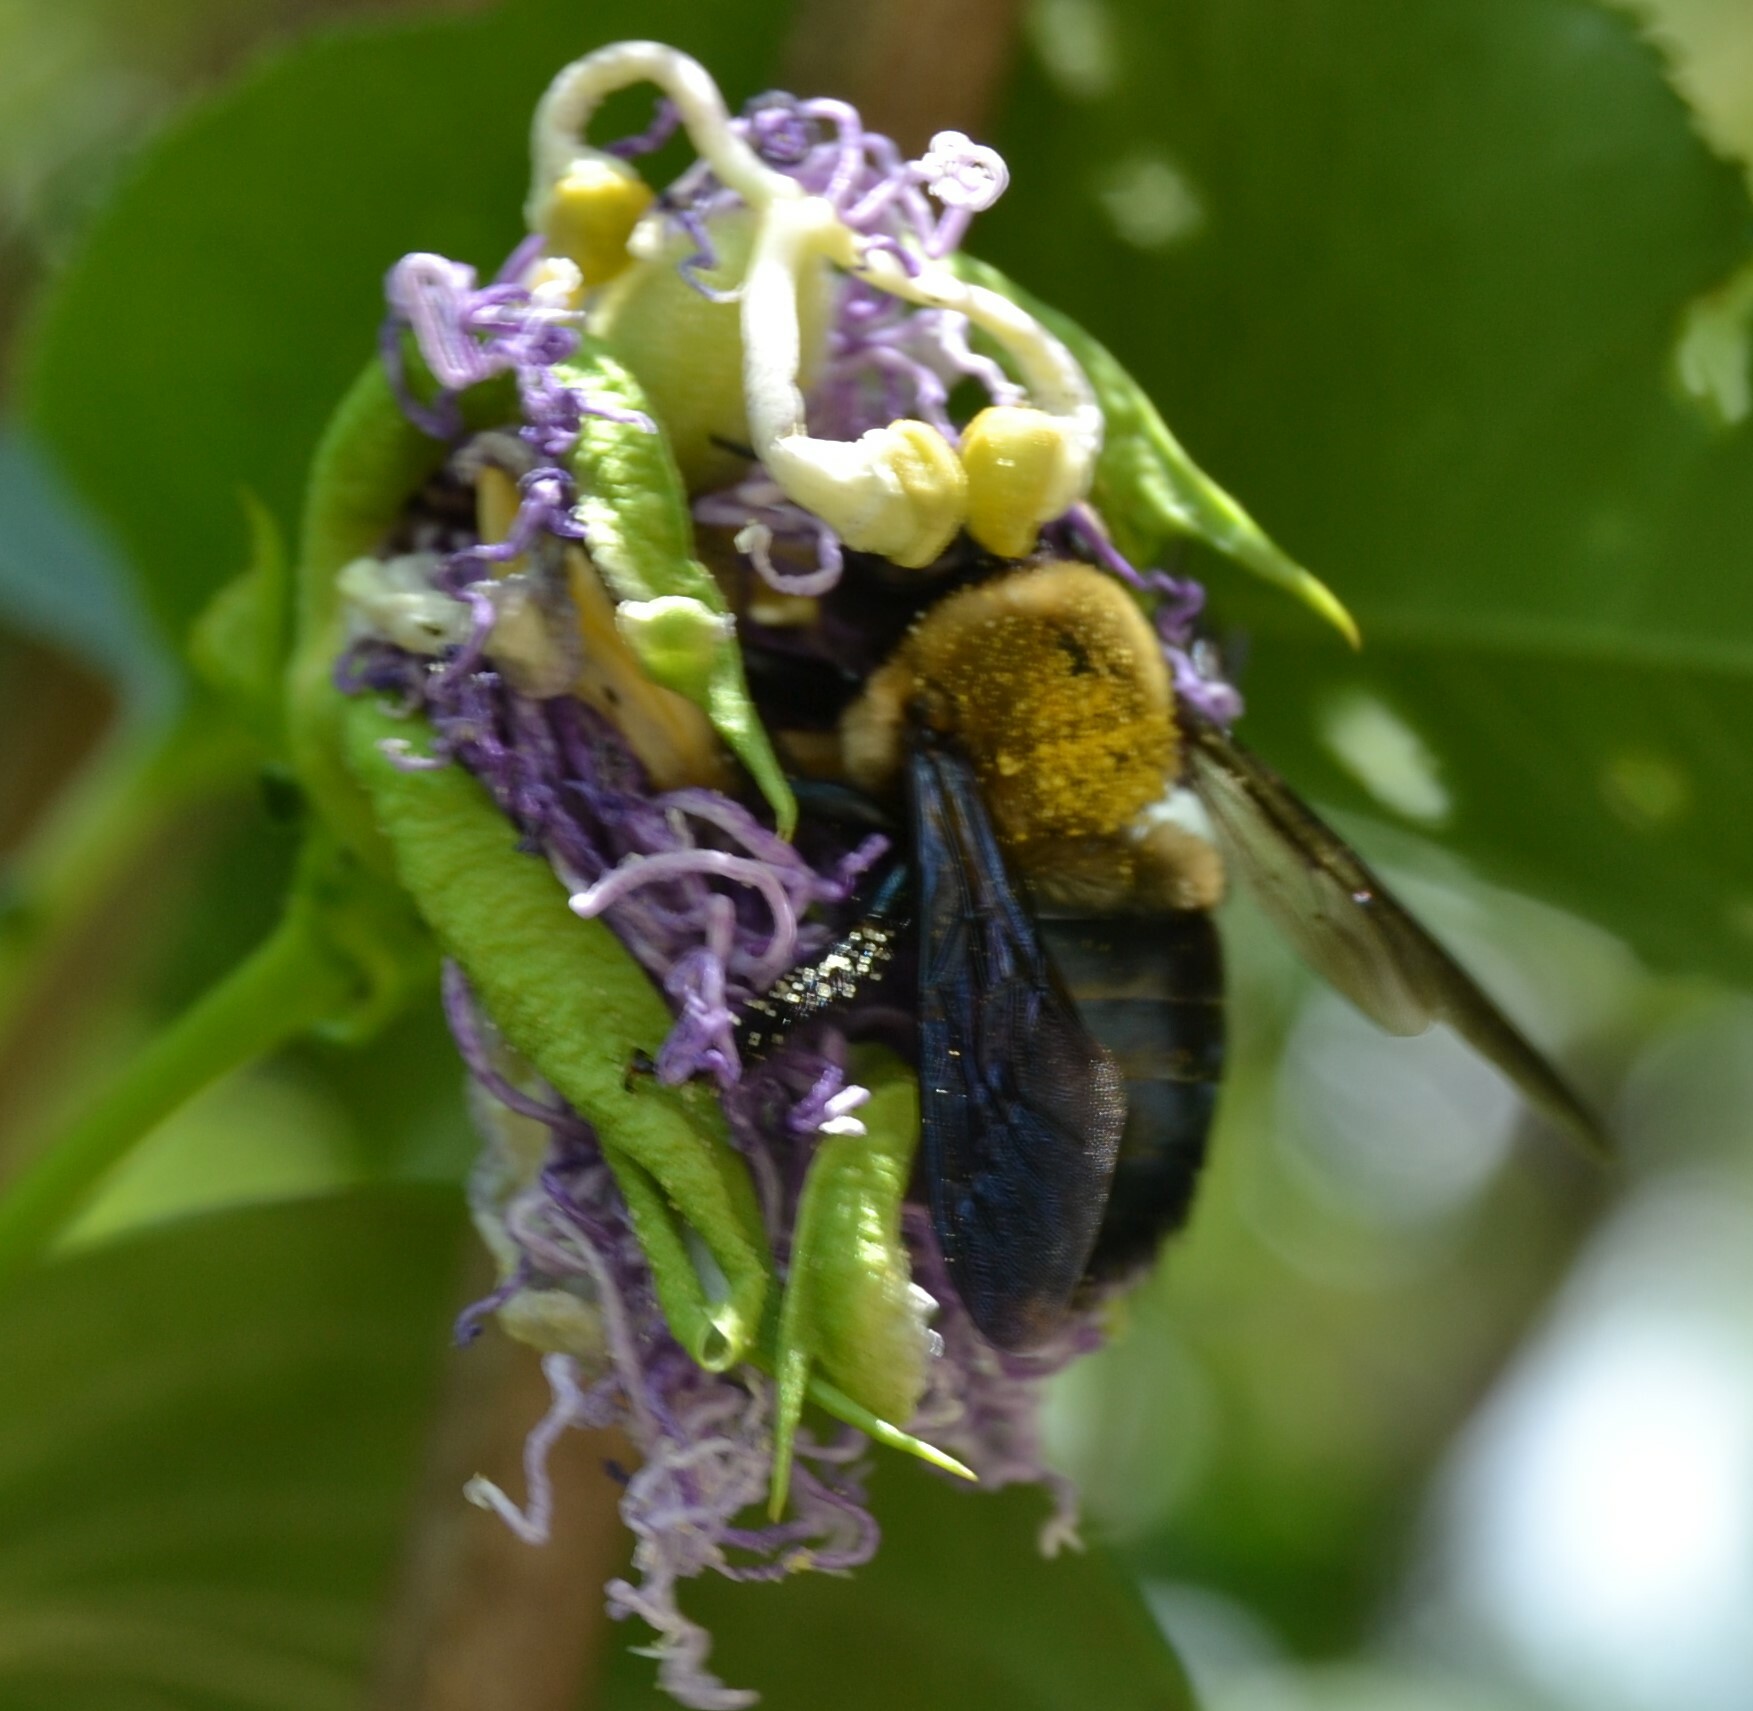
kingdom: Animalia
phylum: Arthropoda
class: Insecta
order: Hymenoptera
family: Apidae
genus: Xylocopa
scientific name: Xylocopa virginica
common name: Carpenter bee
